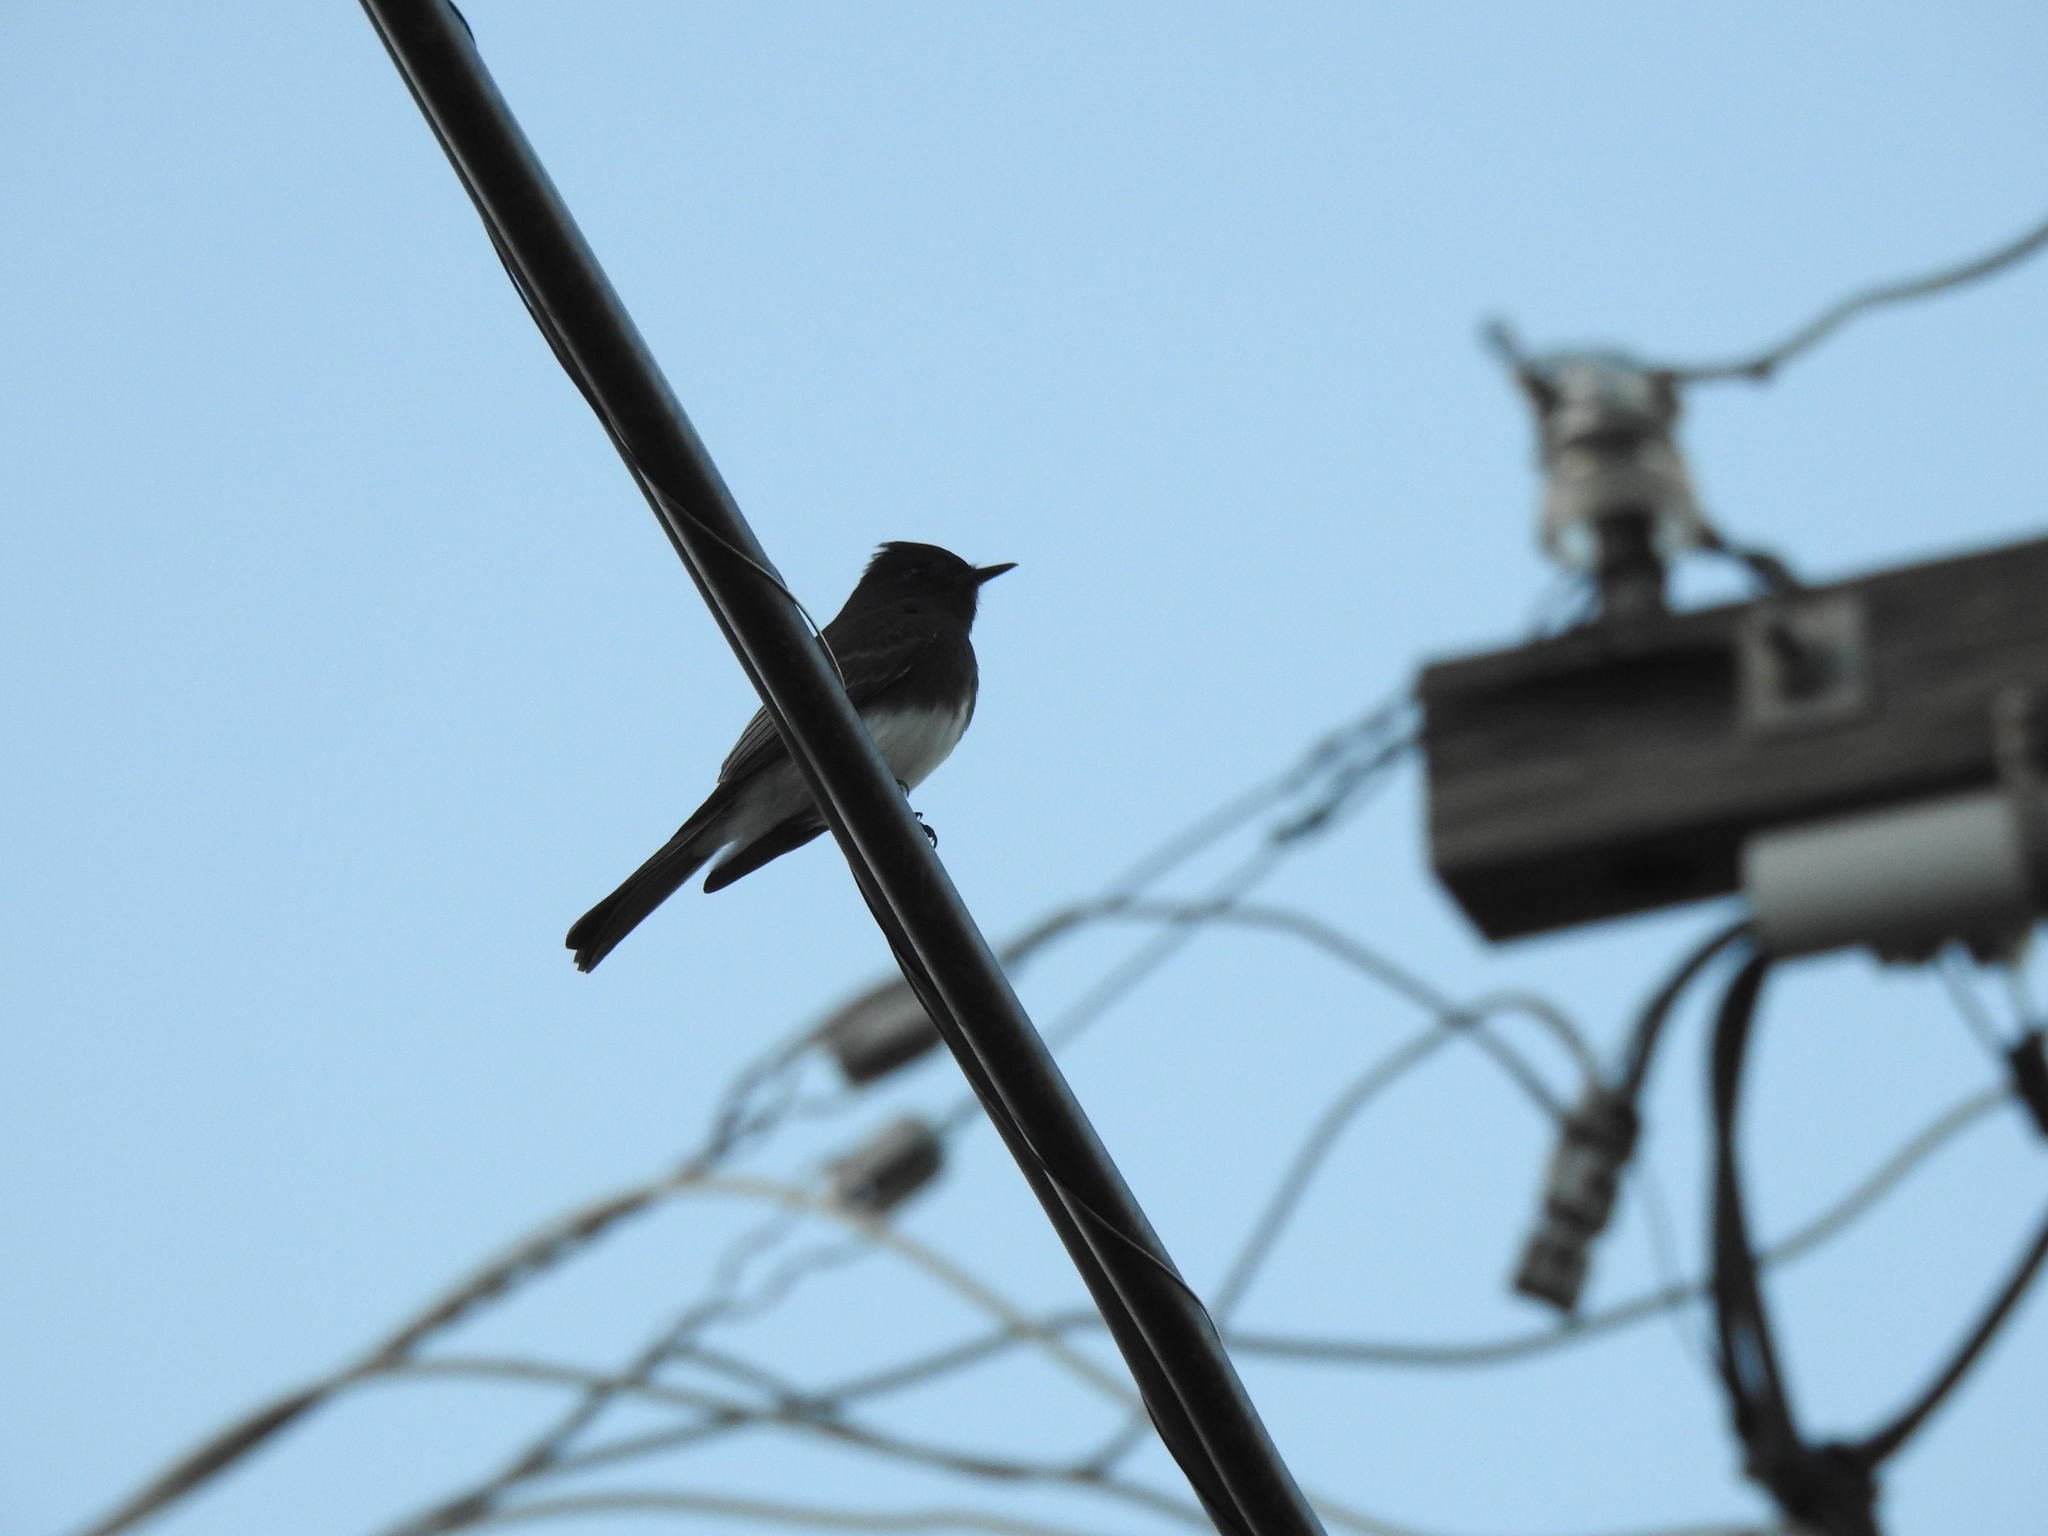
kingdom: Animalia
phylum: Chordata
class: Aves
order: Passeriformes
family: Tyrannidae
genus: Sayornis
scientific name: Sayornis nigricans
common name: Black phoebe
